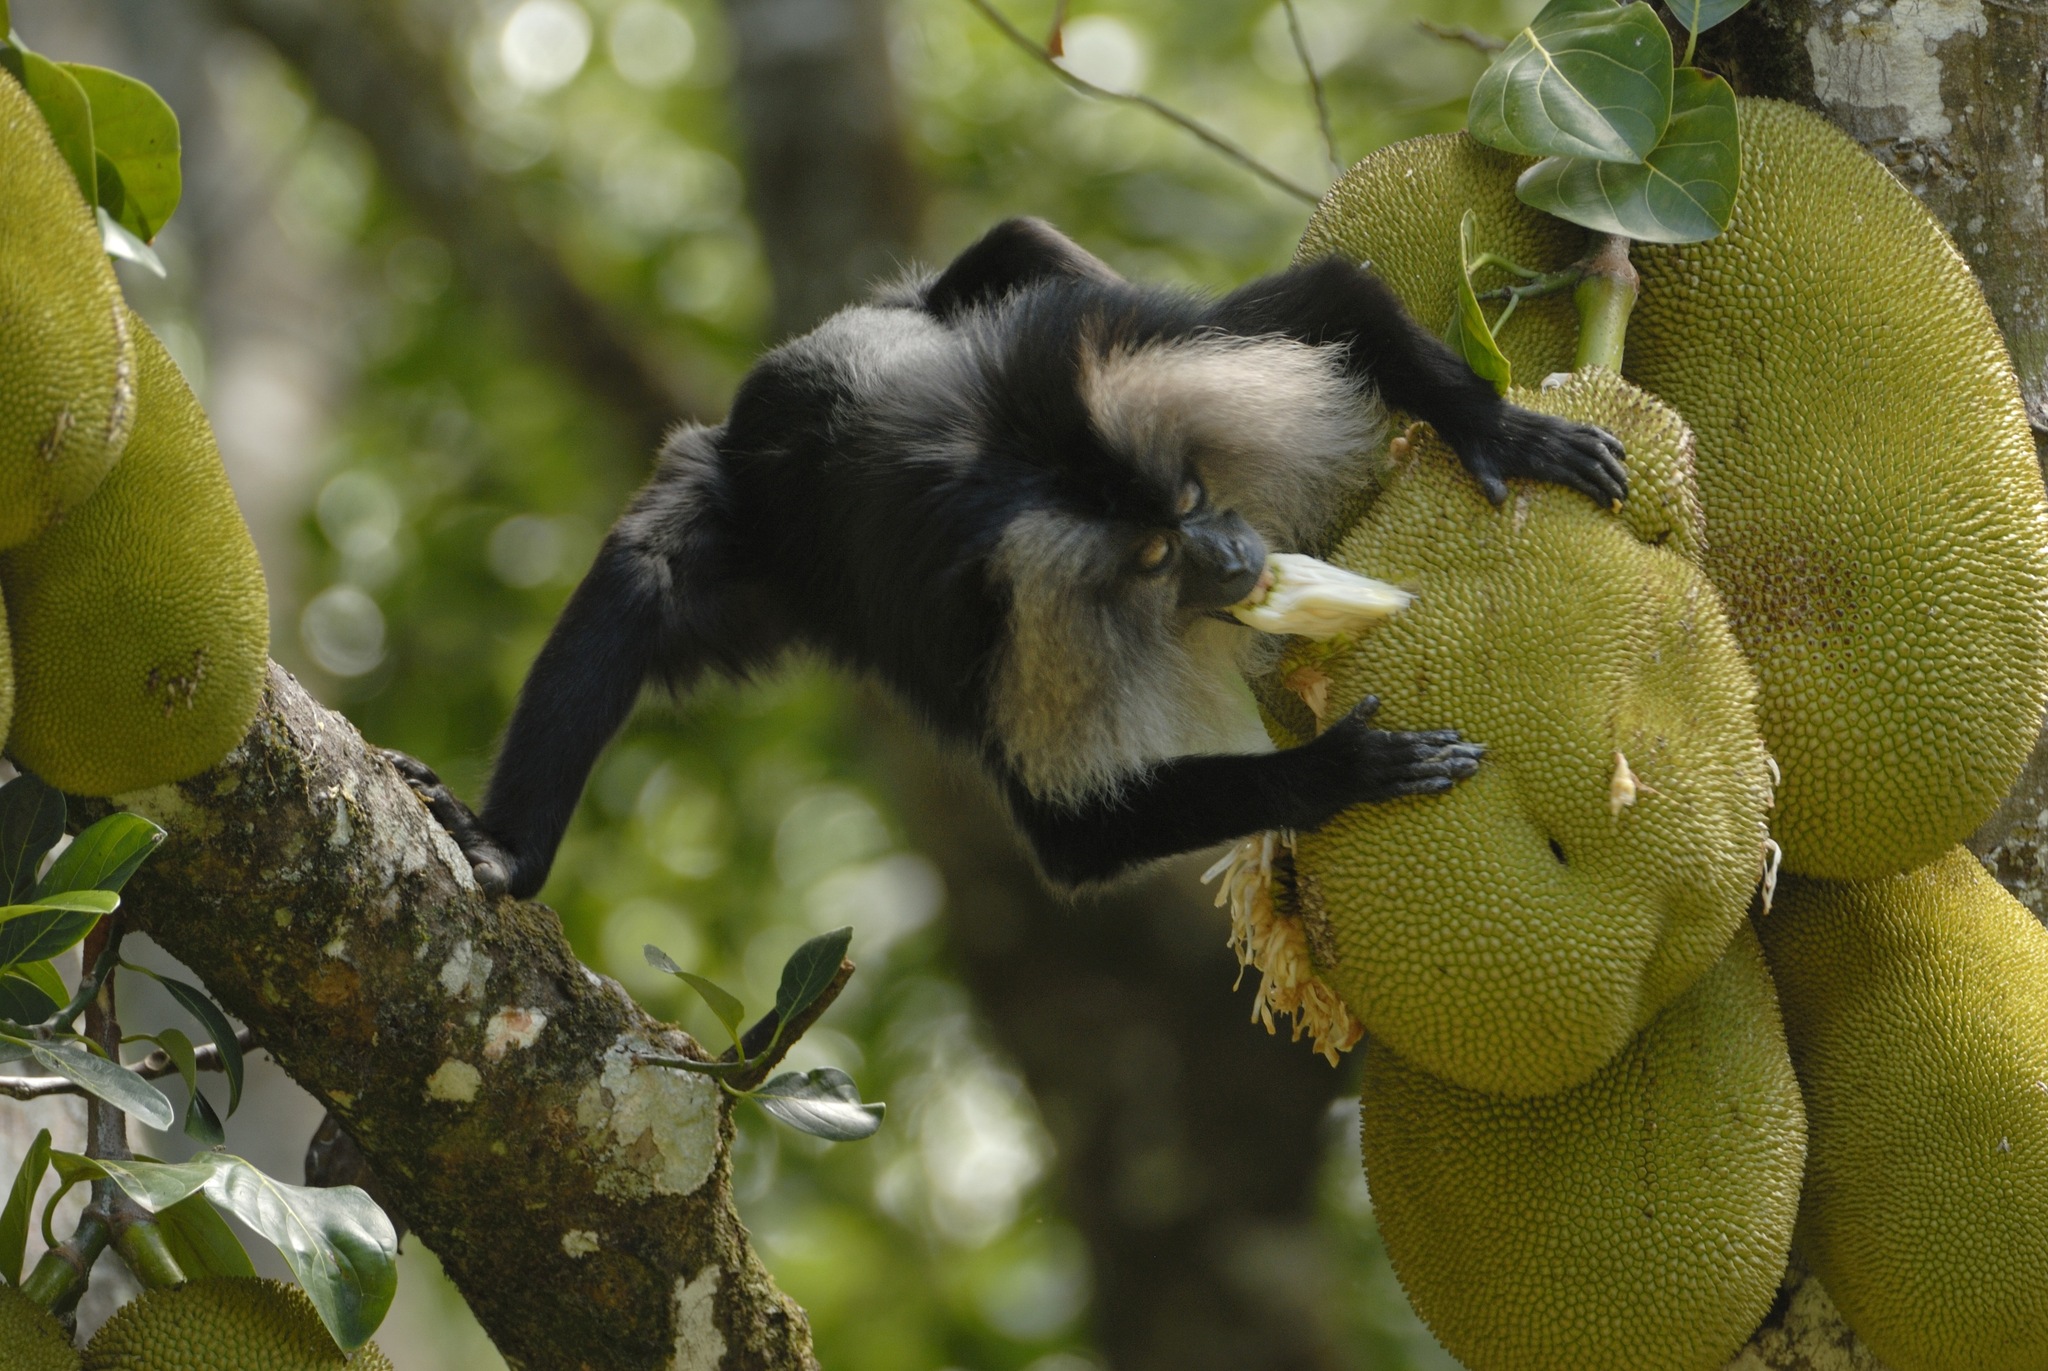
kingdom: Animalia
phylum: Chordata
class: Mammalia
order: Primates
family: Cercopithecidae
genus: Macaca
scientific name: Macaca silenus
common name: Lion-tailed macaque
